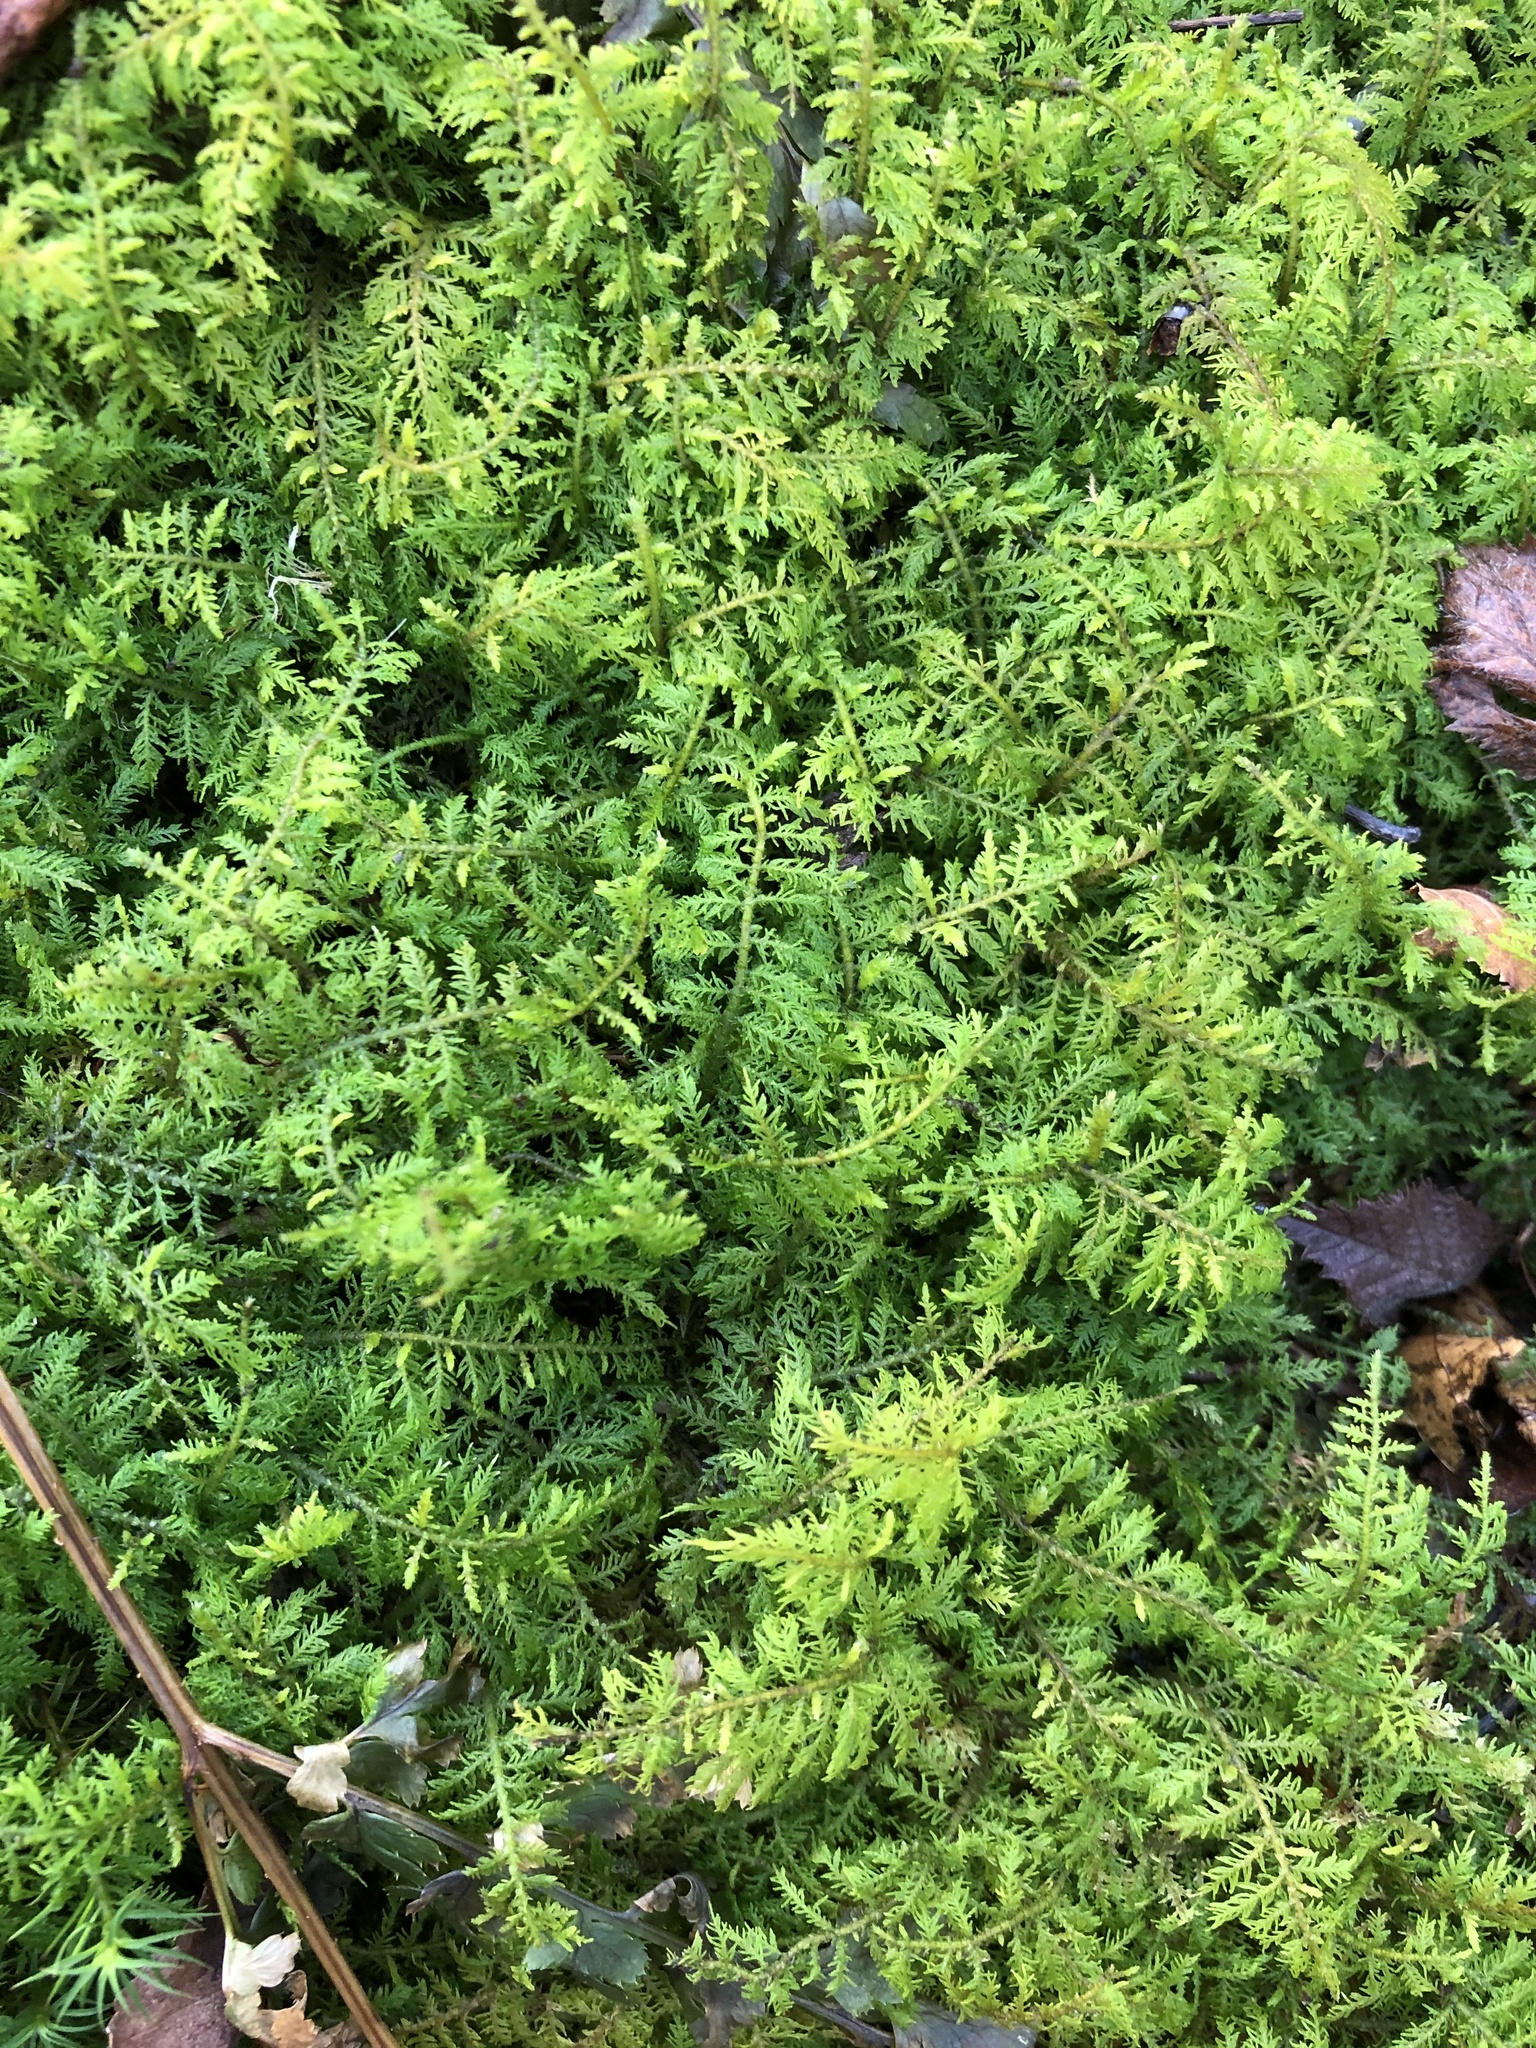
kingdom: Plantae
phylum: Bryophyta
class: Bryopsida
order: Hypnales
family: Thuidiaceae
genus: Thuidium
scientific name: Thuidium delicatulum
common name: Delicate fern moss
